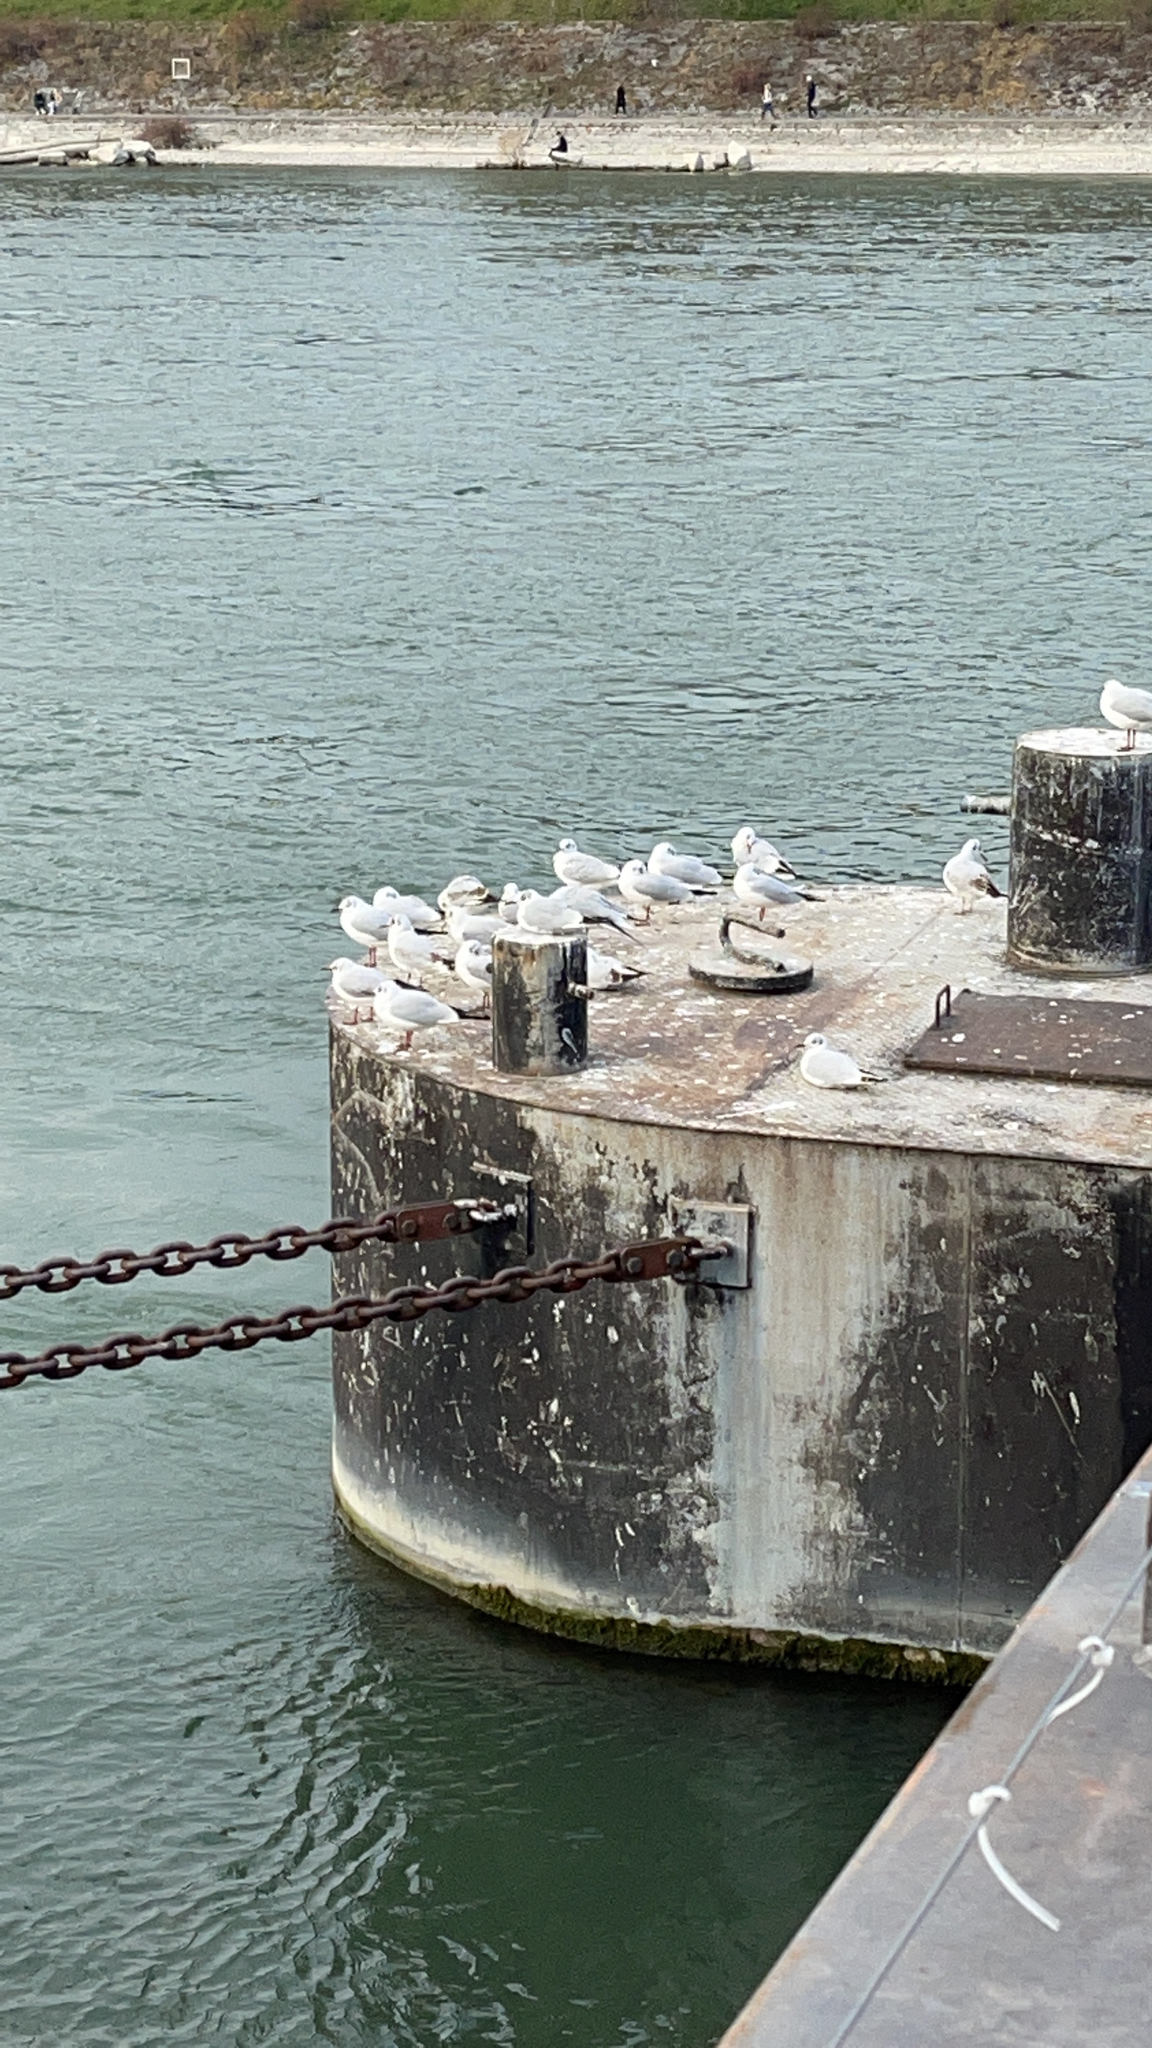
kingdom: Animalia
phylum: Chordata
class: Aves
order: Charadriiformes
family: Laridae
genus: Chroicocephalus
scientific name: Chroicocephalus ridibundus
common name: Black-headed gull
